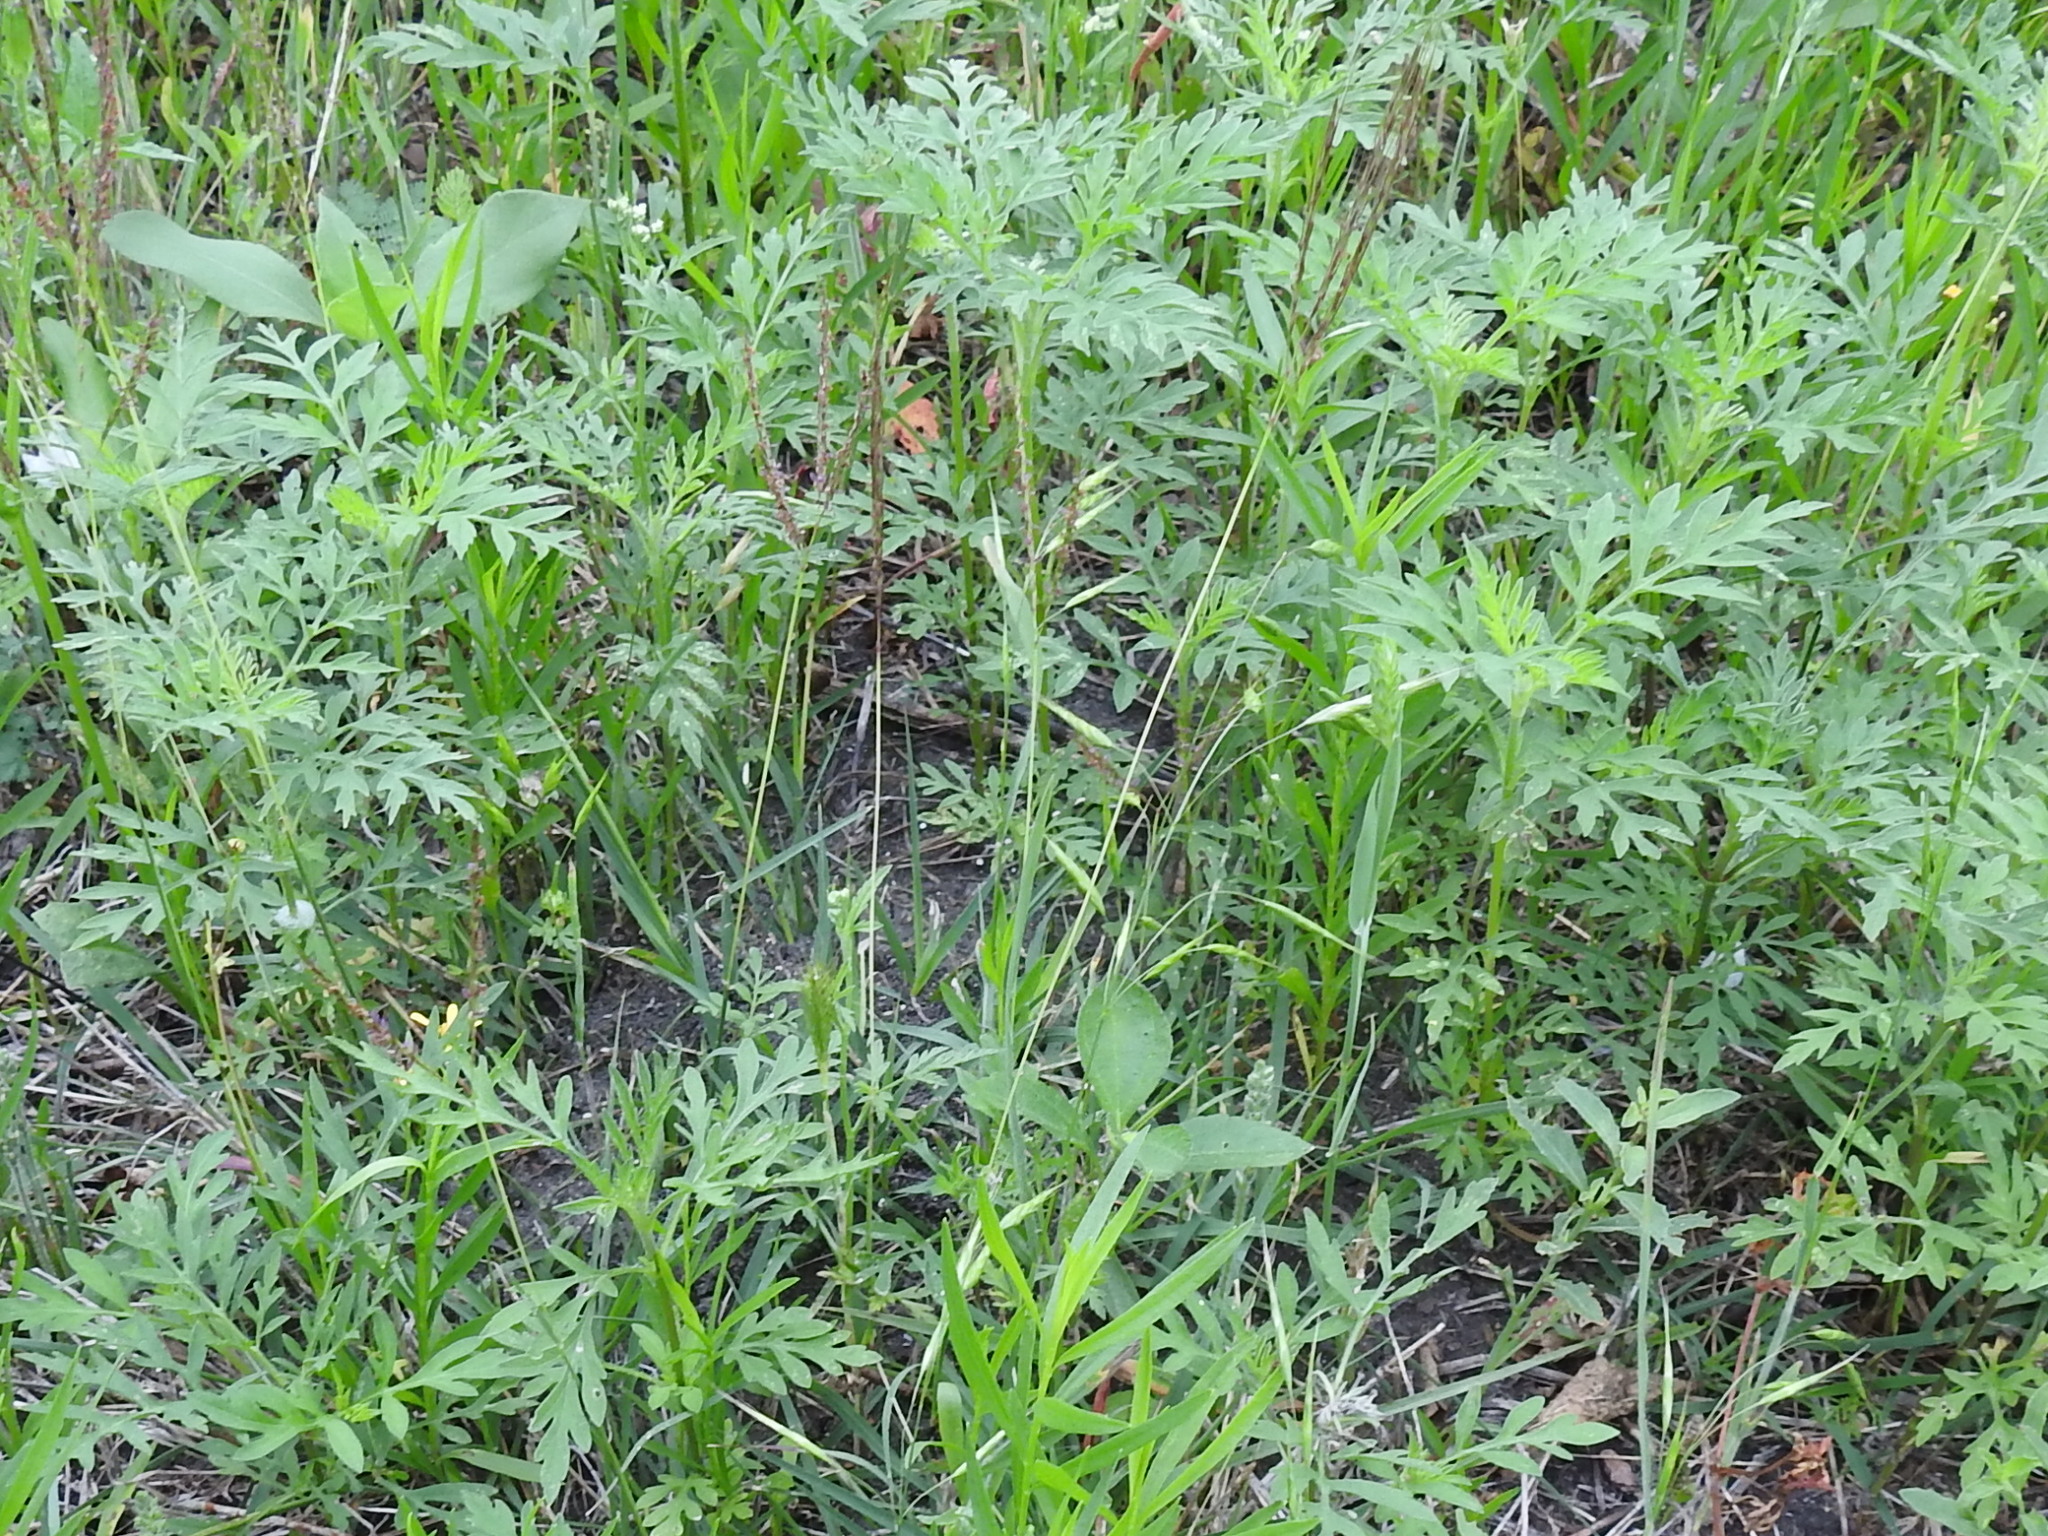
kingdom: Plantae
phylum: Tracheophyta
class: Liliopsida
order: Poales
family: Poaceae
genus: Bothriochloa
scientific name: Bothriochloa ischaemum
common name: Yellow bluestem
